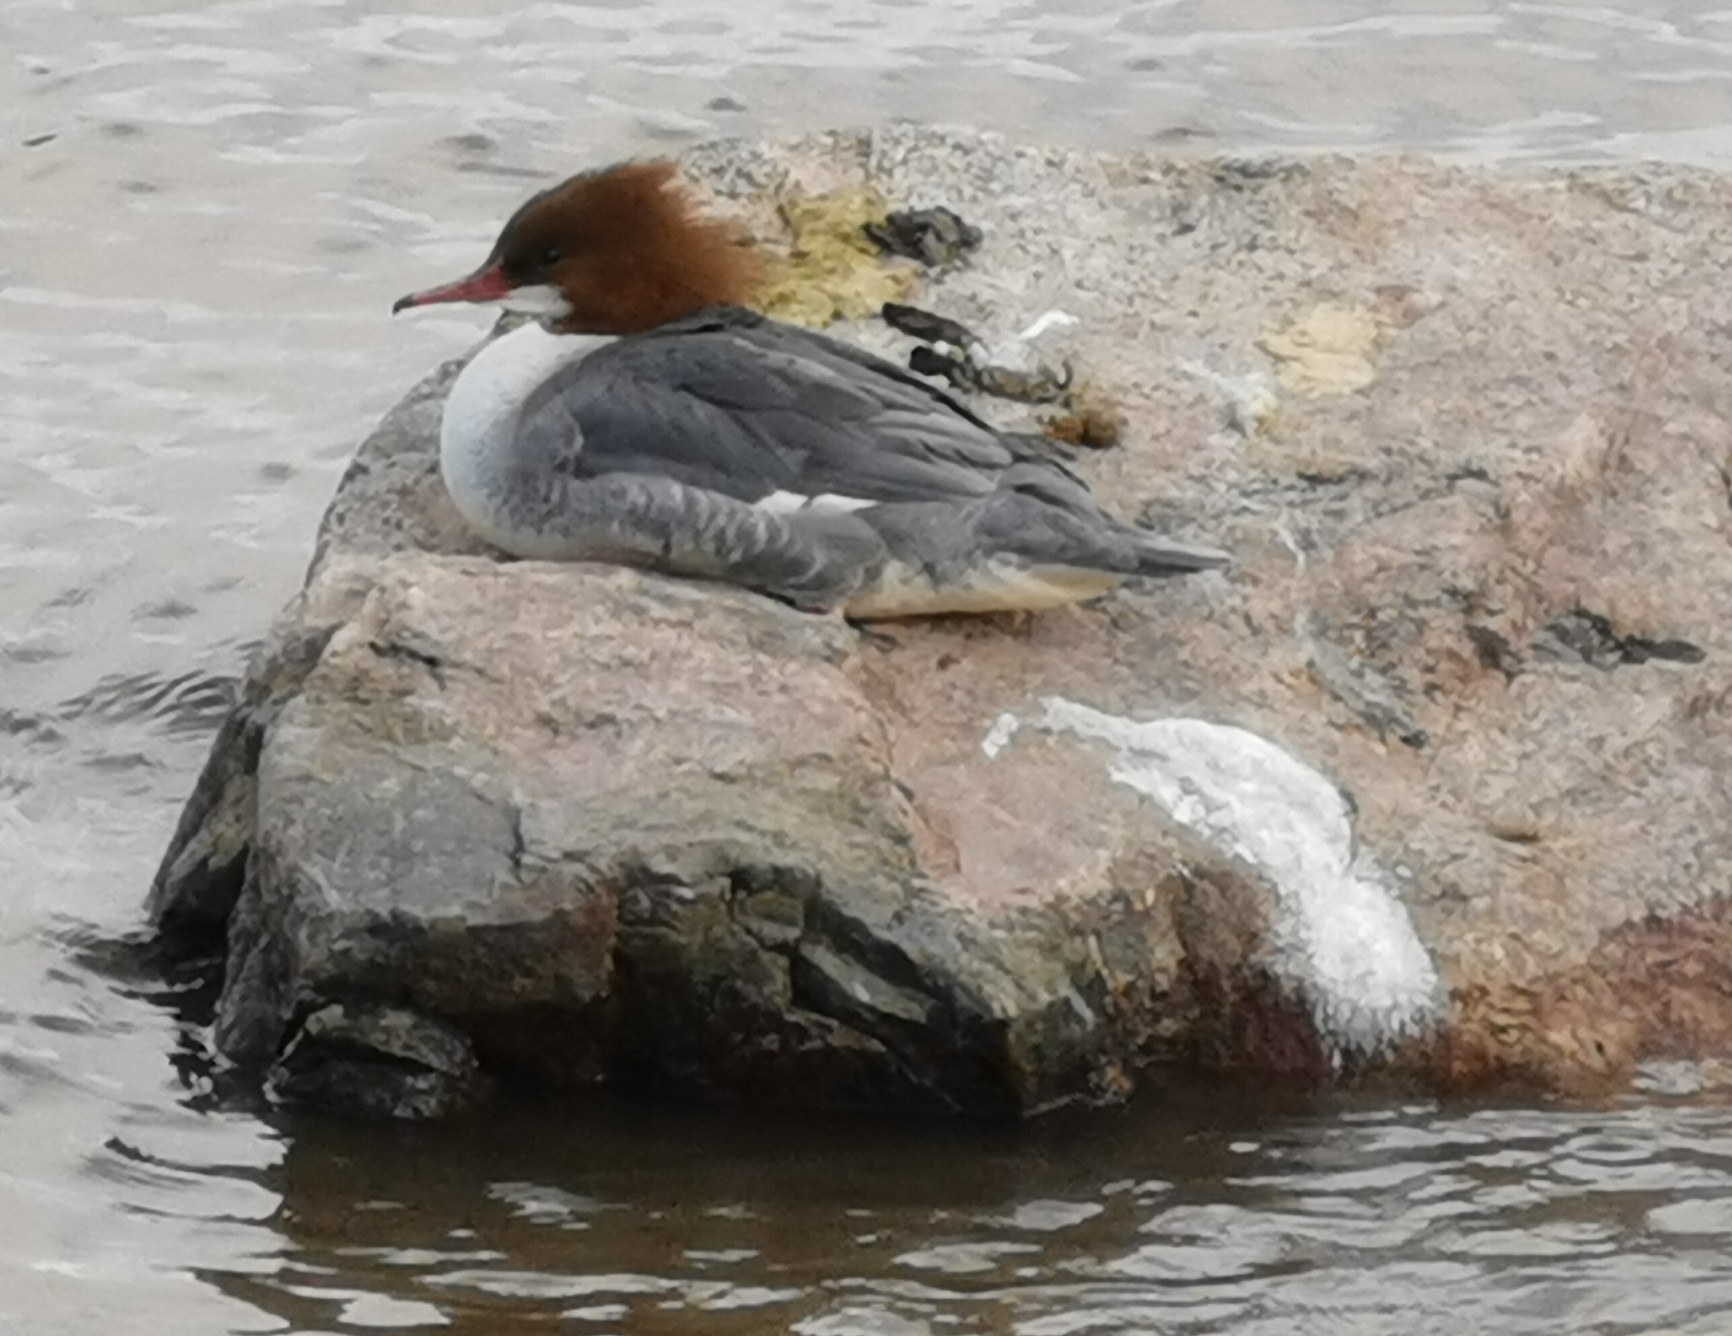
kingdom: Animalia
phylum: Chordata
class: Aves
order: Anseriformes
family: Anatidae
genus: Mergus
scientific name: Mergus merganser
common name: Common merganser
